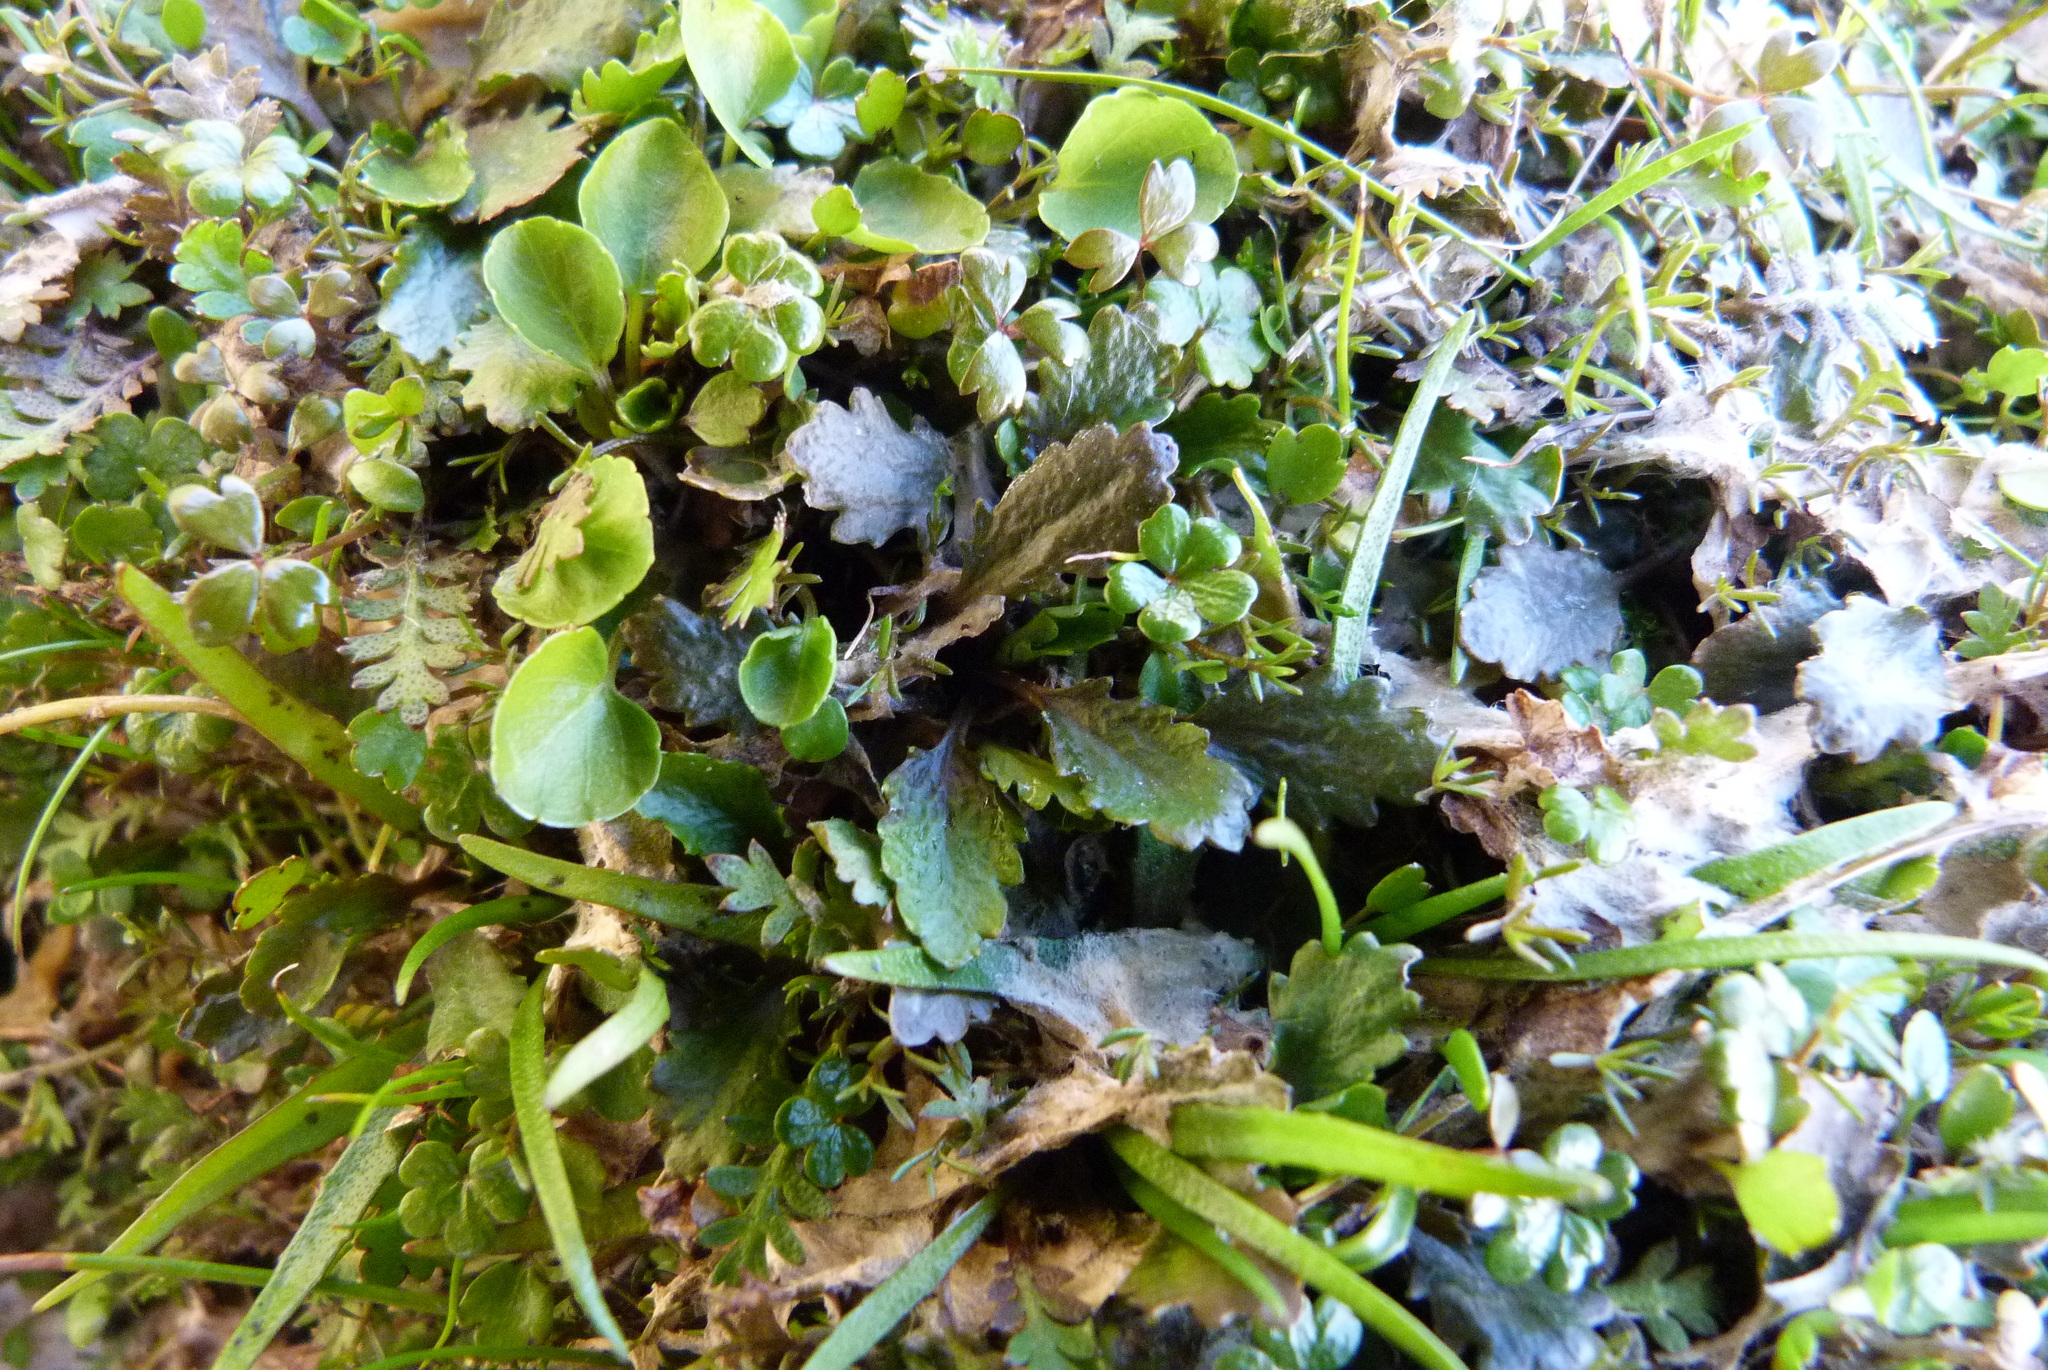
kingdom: Plantae
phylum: Tracheophyta
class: Magnoliopsida
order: Gunnerales
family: Gunneraceae
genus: Gunnera
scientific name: Gunnera dentata
